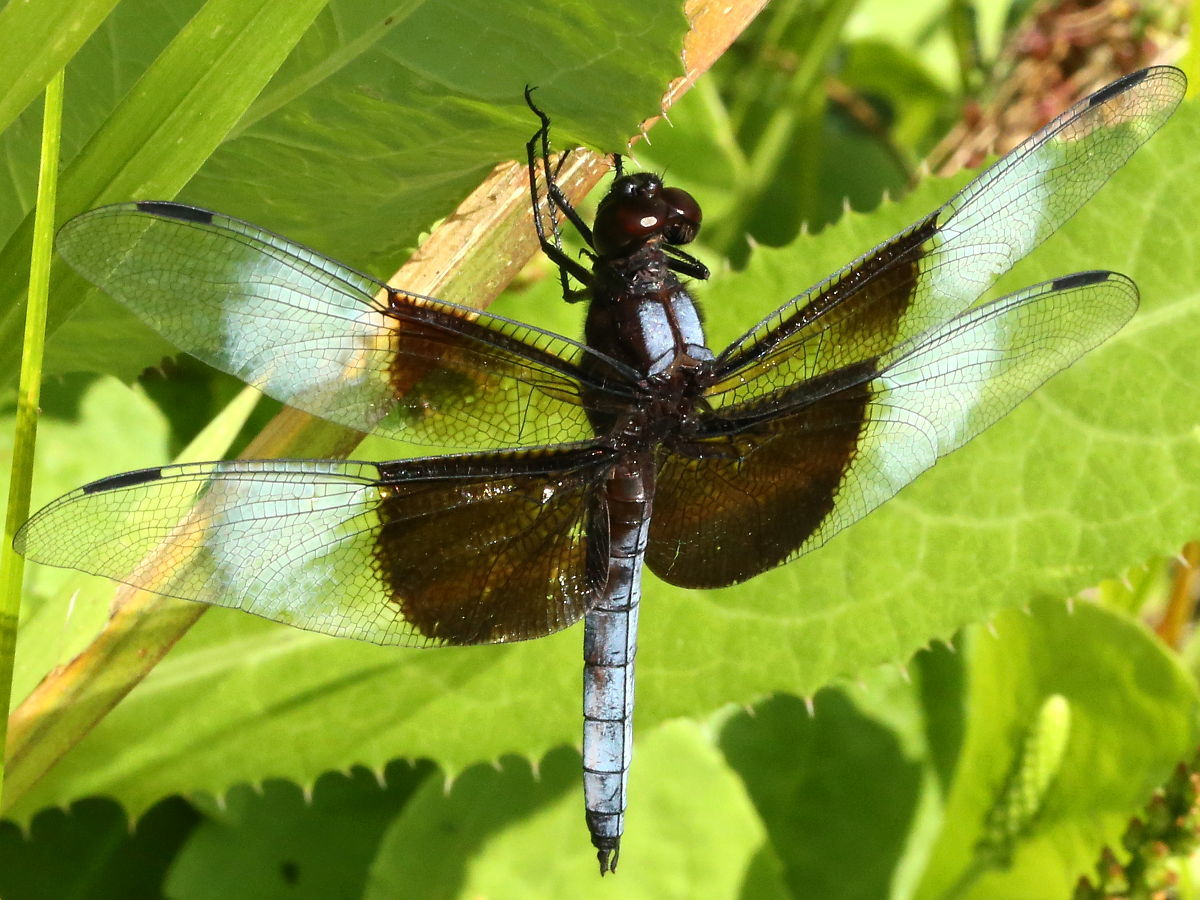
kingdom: Animalia
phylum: Arthropoda
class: Insecta
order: Odonata
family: Libellulidae
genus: Libellula
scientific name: Libellula luctuosa
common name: Widow skimmer
